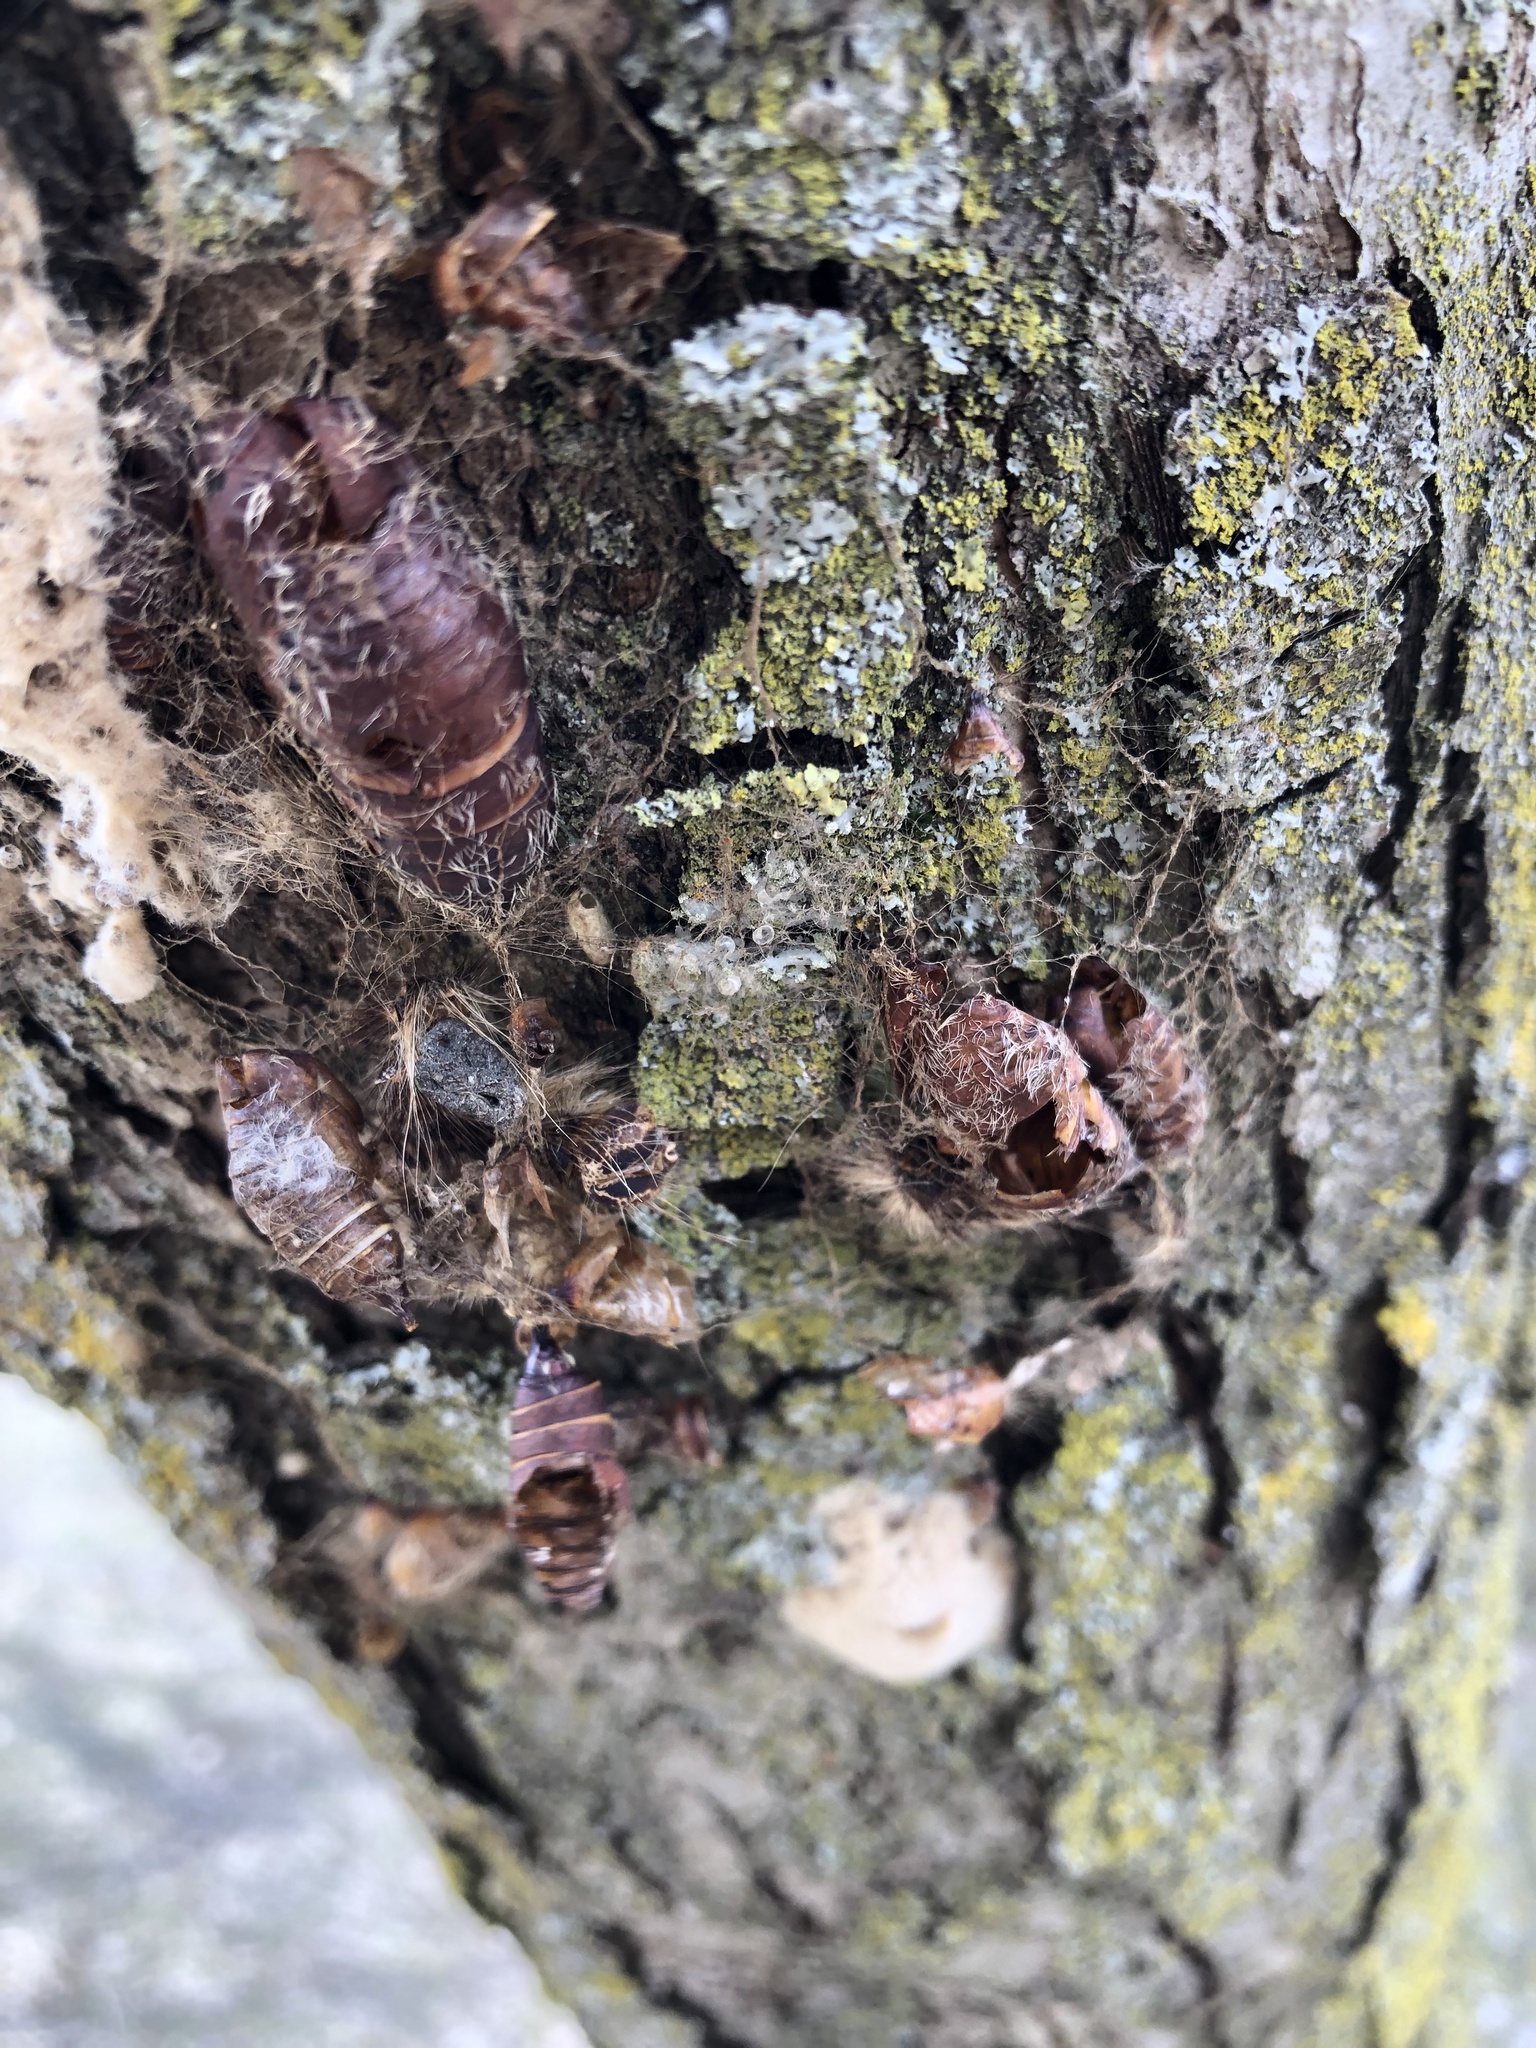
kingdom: Animalia
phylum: Arthropoda
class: Insecta
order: Lepidoptera
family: Erebidae
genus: Lymantria
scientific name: Lymantria dispar
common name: Gypsy moth
